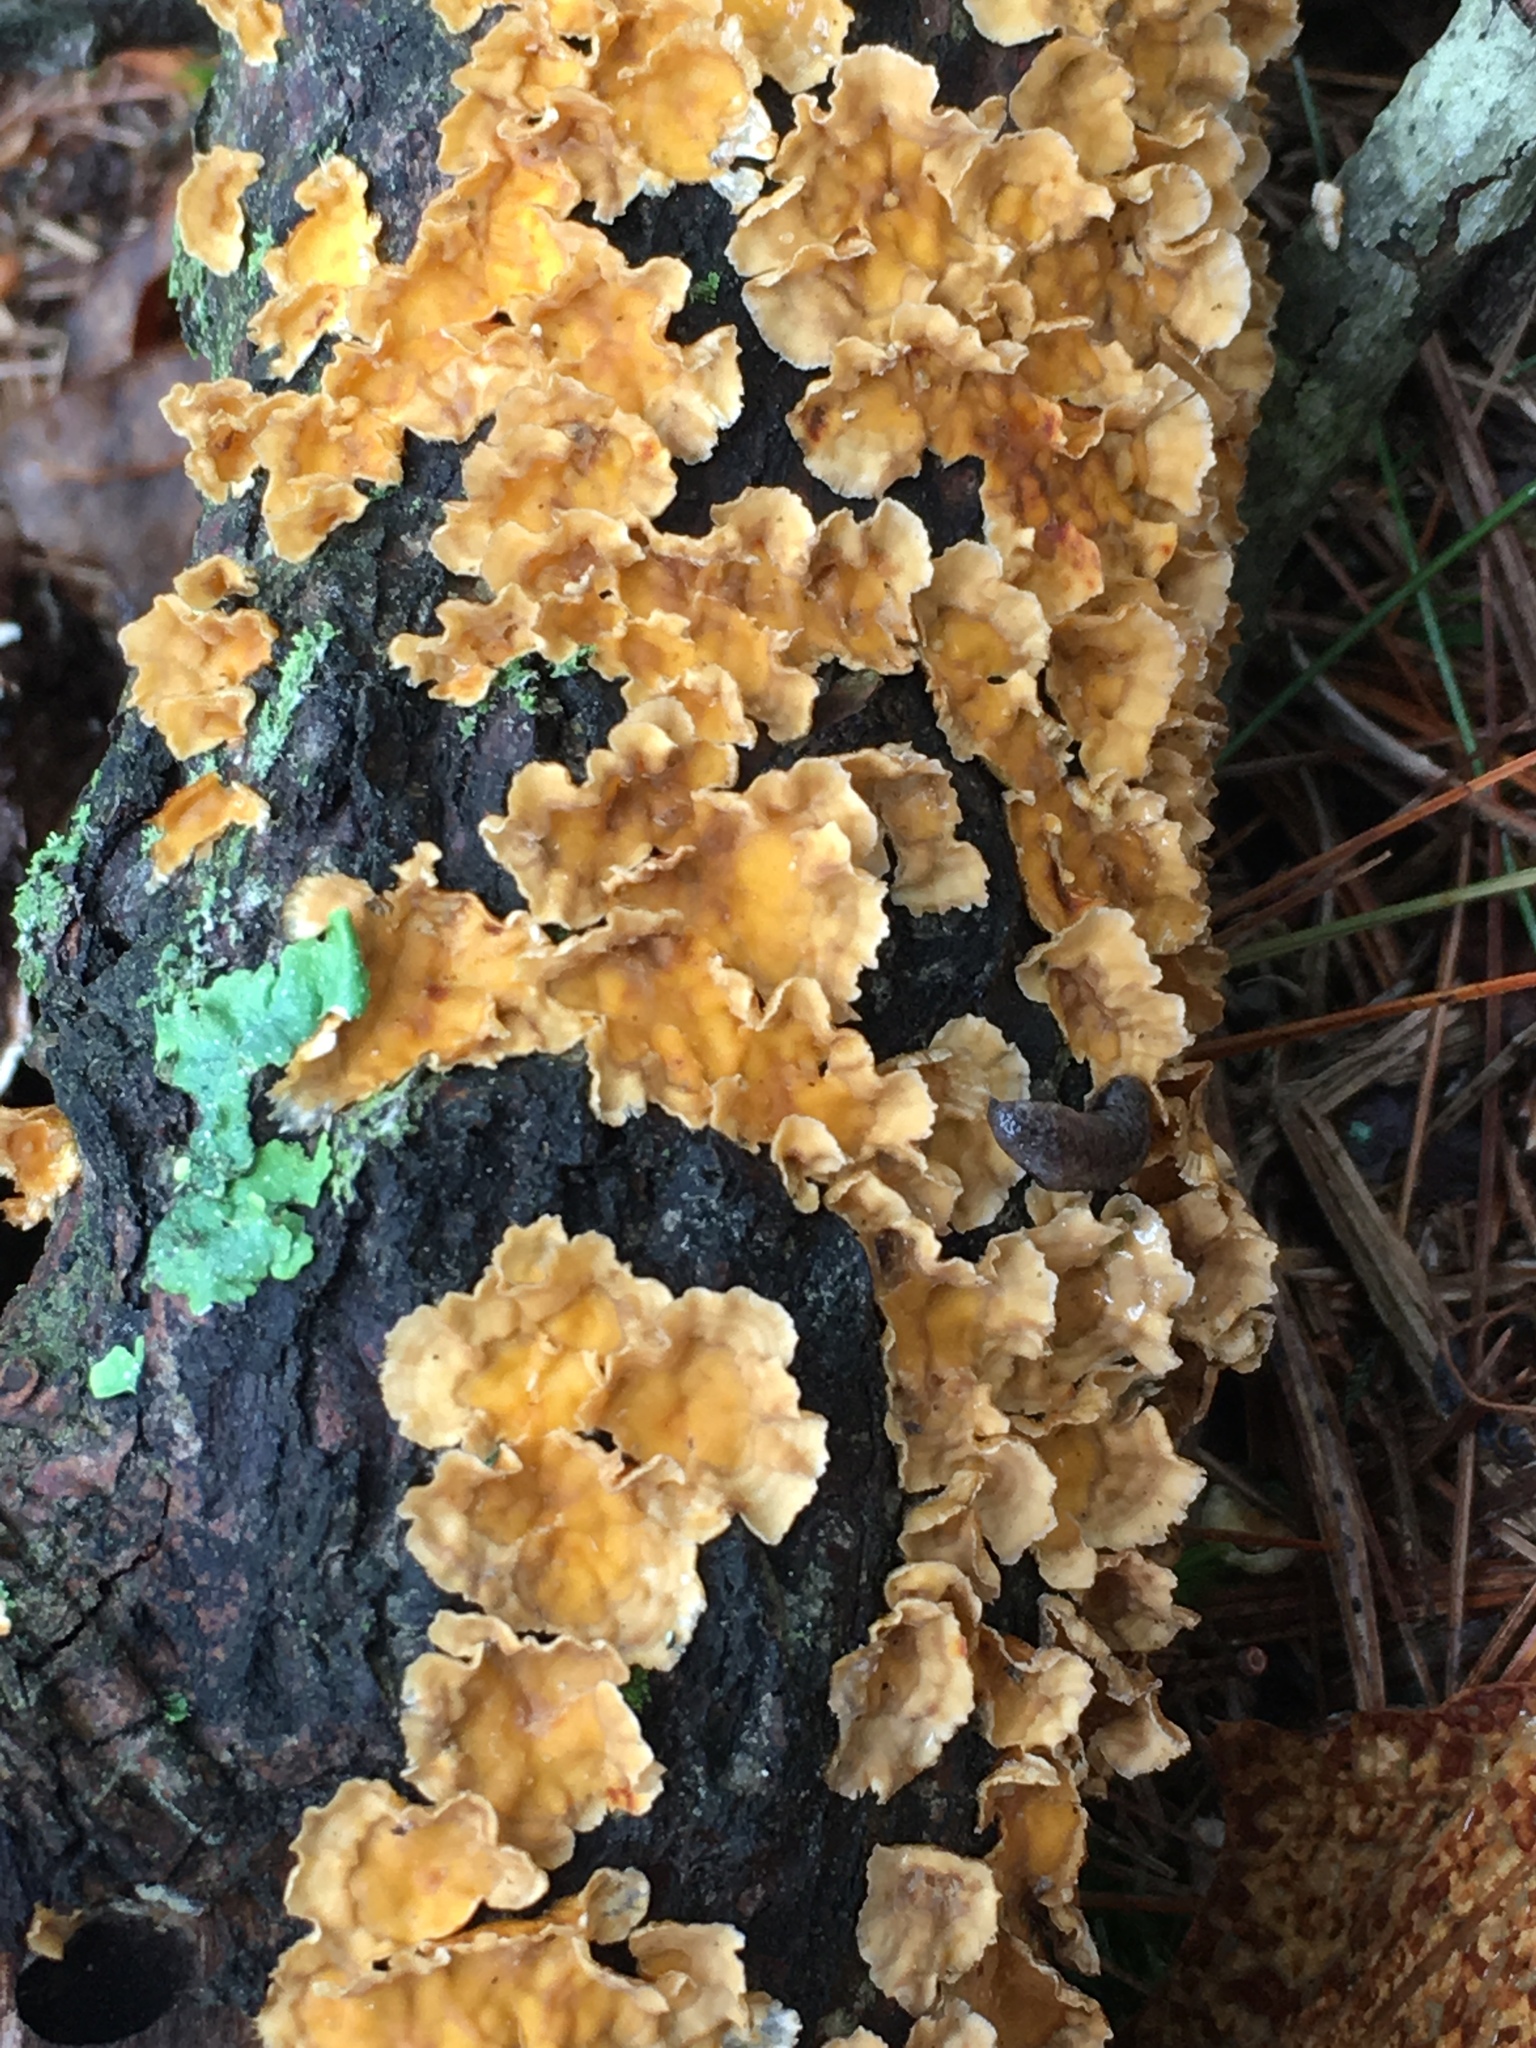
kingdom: Fungi
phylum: Basidiomycota
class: Agaricomycetes
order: Russulales
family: Stereaceae
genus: Stereum
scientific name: Stereum complicatum
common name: Crowded parchment
